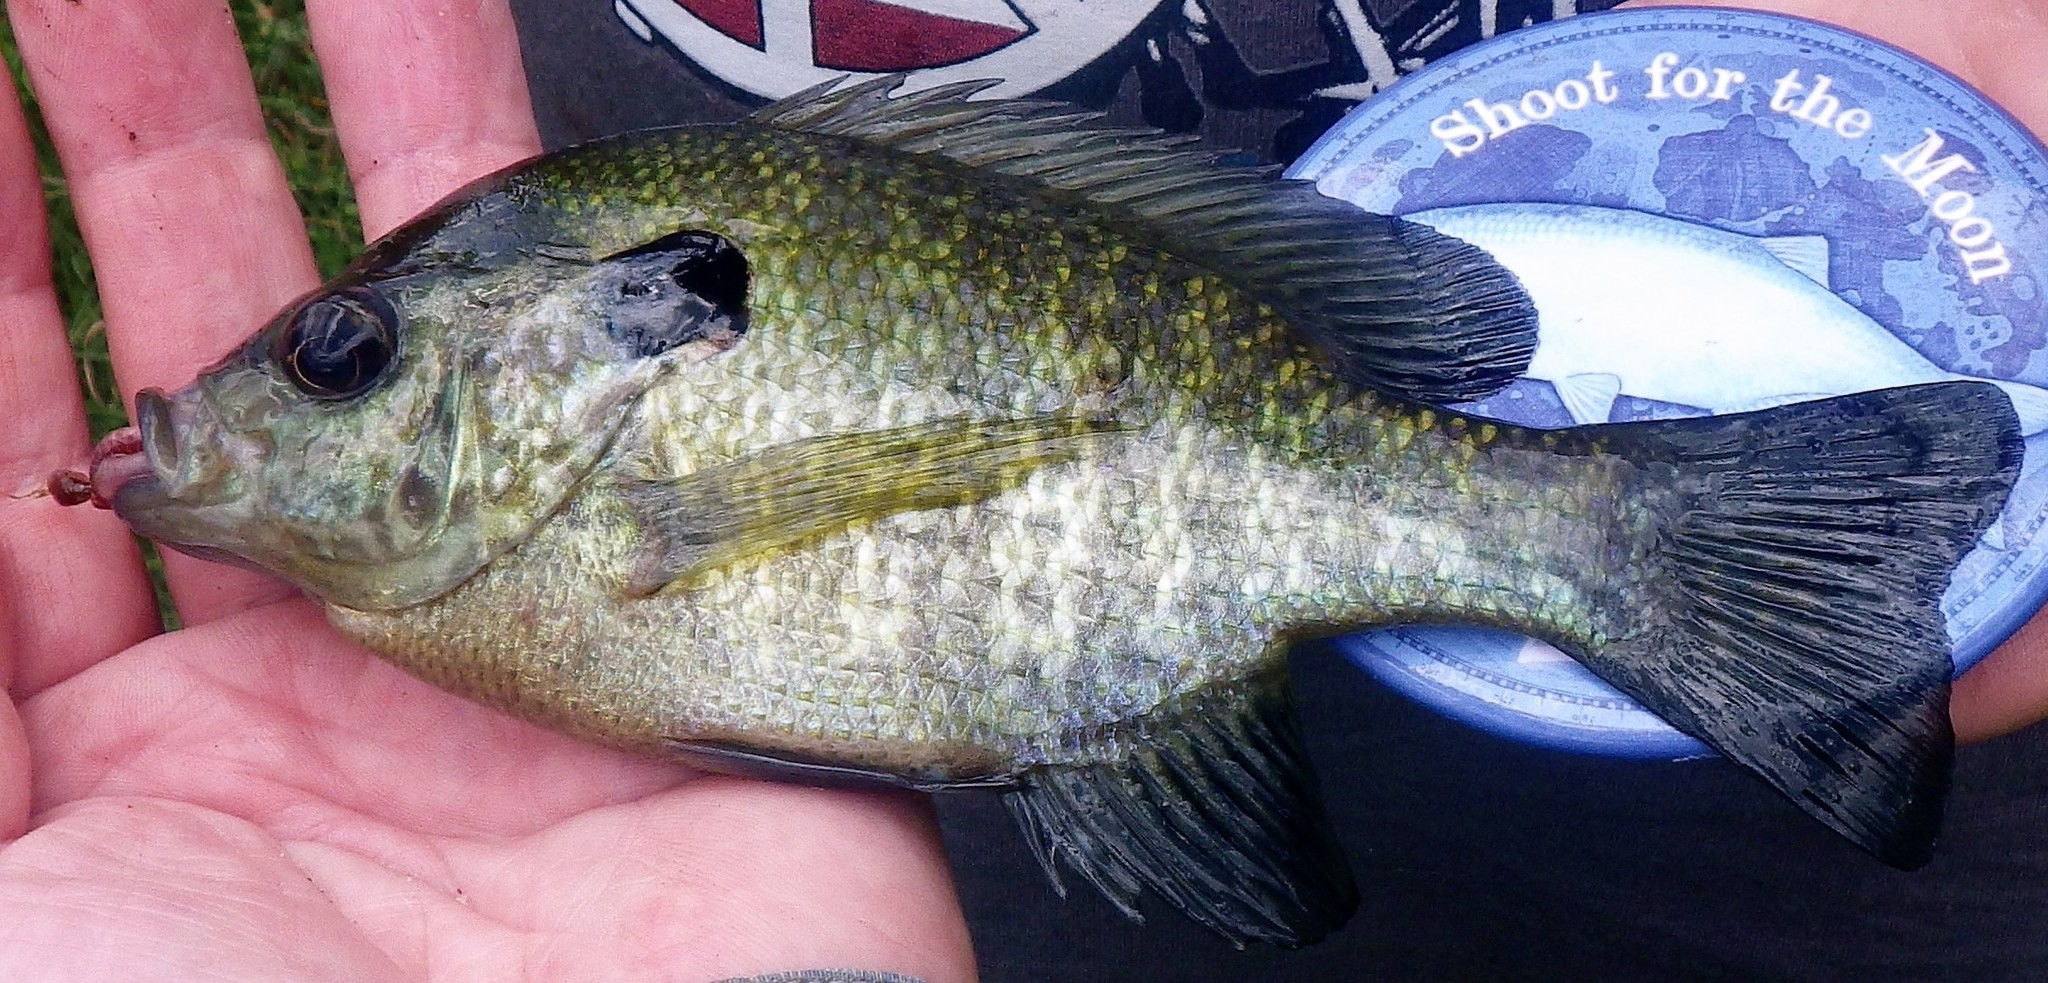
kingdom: Animalia
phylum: Chordata
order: Perciformes
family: Centrarchidae
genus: Lepomis
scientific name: Lepomis
